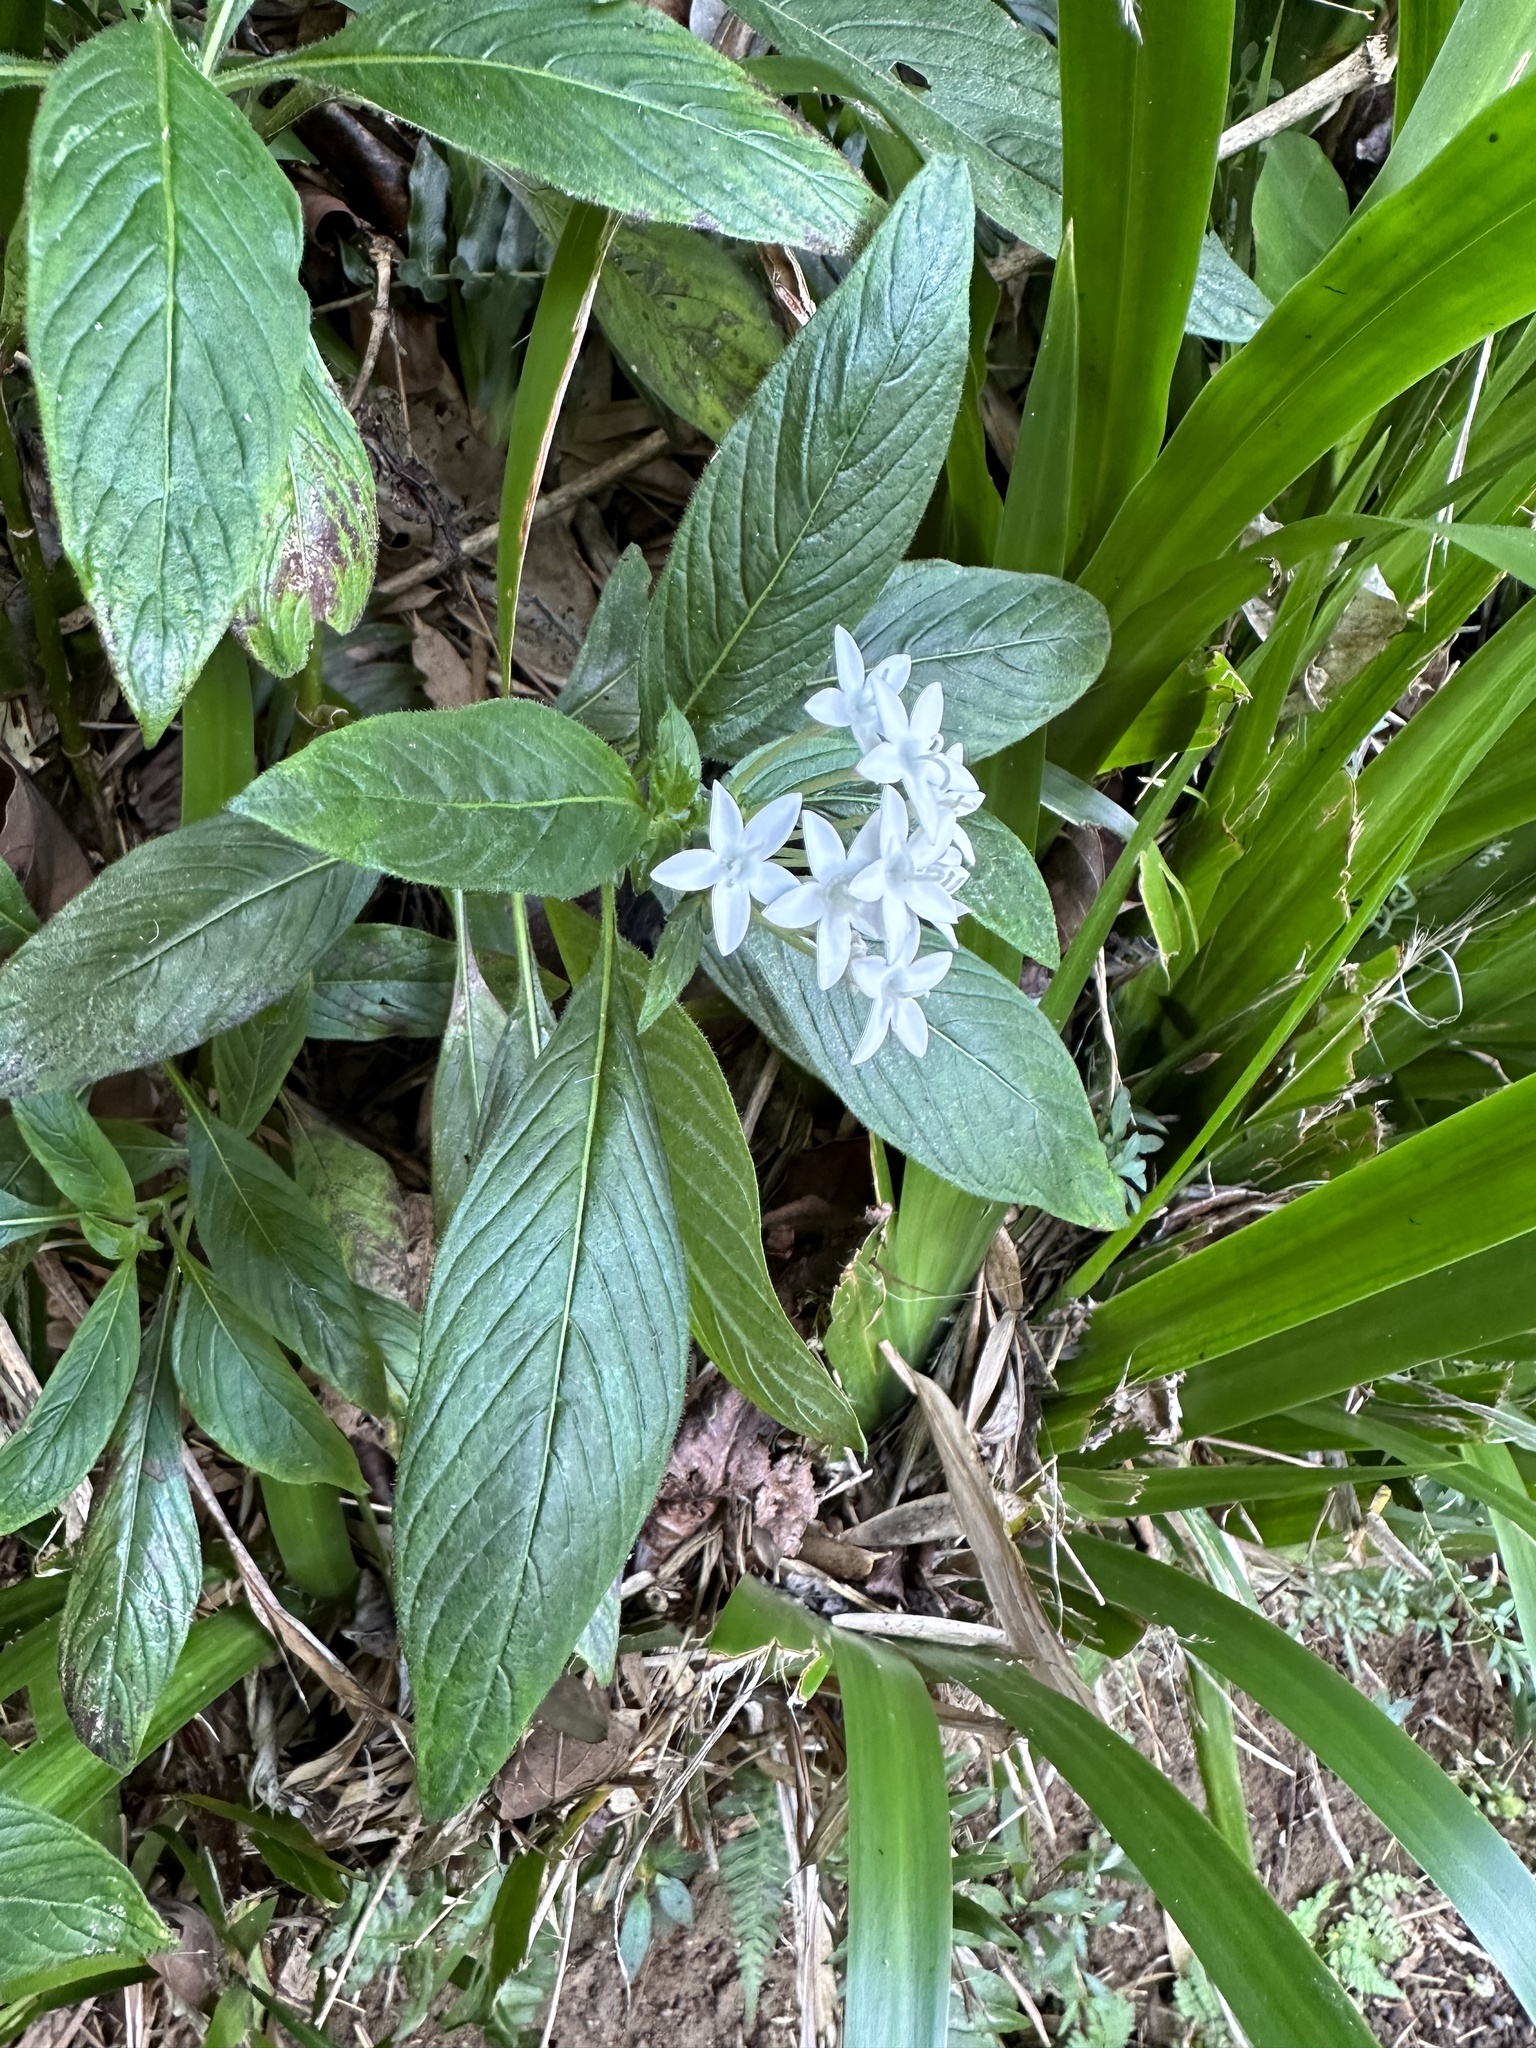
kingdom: Plantae
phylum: Tracheophyta
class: Magnoliopsida
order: Gentianales
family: Rubiaceae
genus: Pentas
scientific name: Pentas lanceolata
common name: Egyptian starcluster
